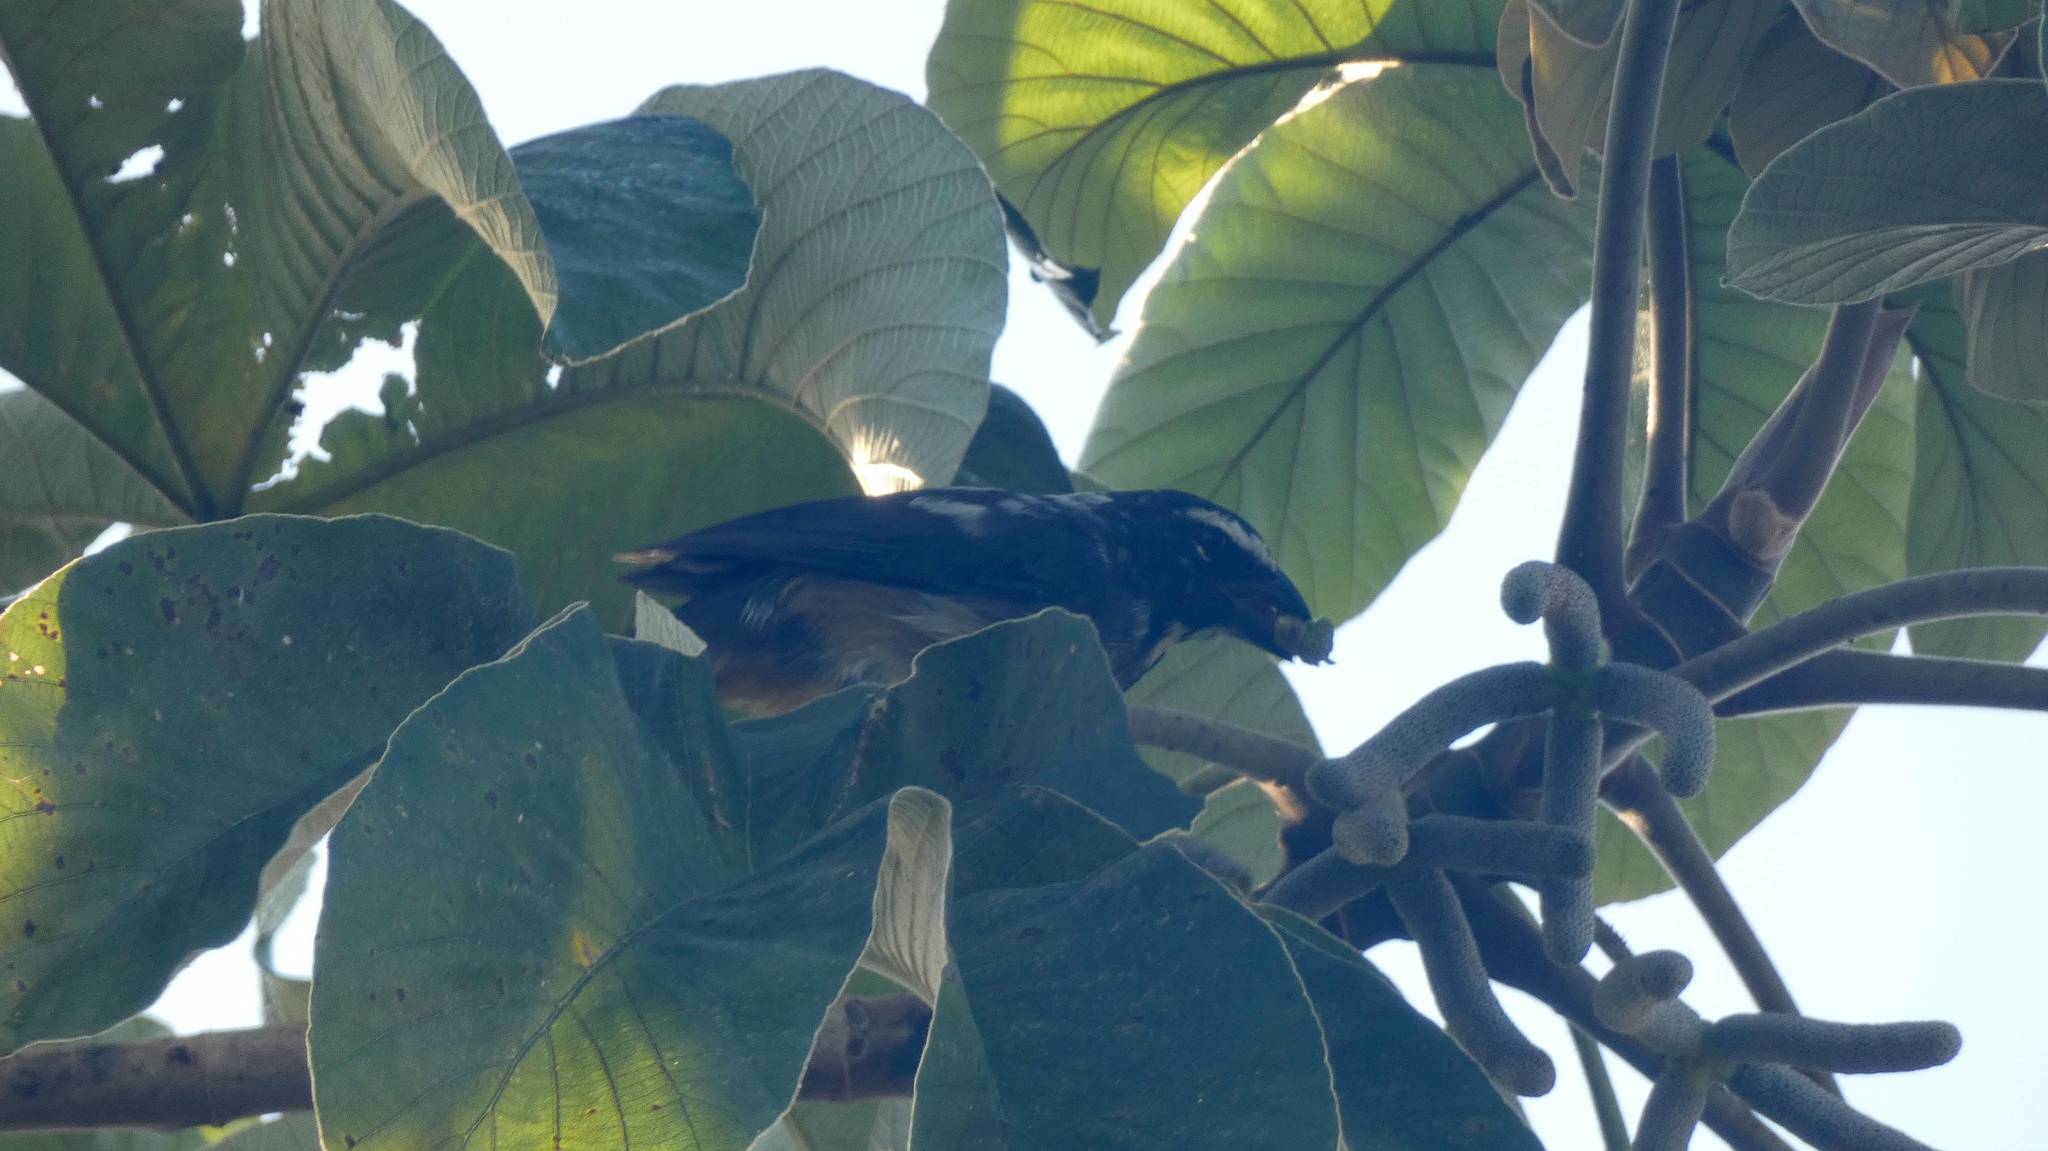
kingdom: Animalia
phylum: Chordata
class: Aves
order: Passeriformes
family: Thraupidae
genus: Saltator
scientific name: Saltator grandis
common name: Cinnamon-bellied saltator
